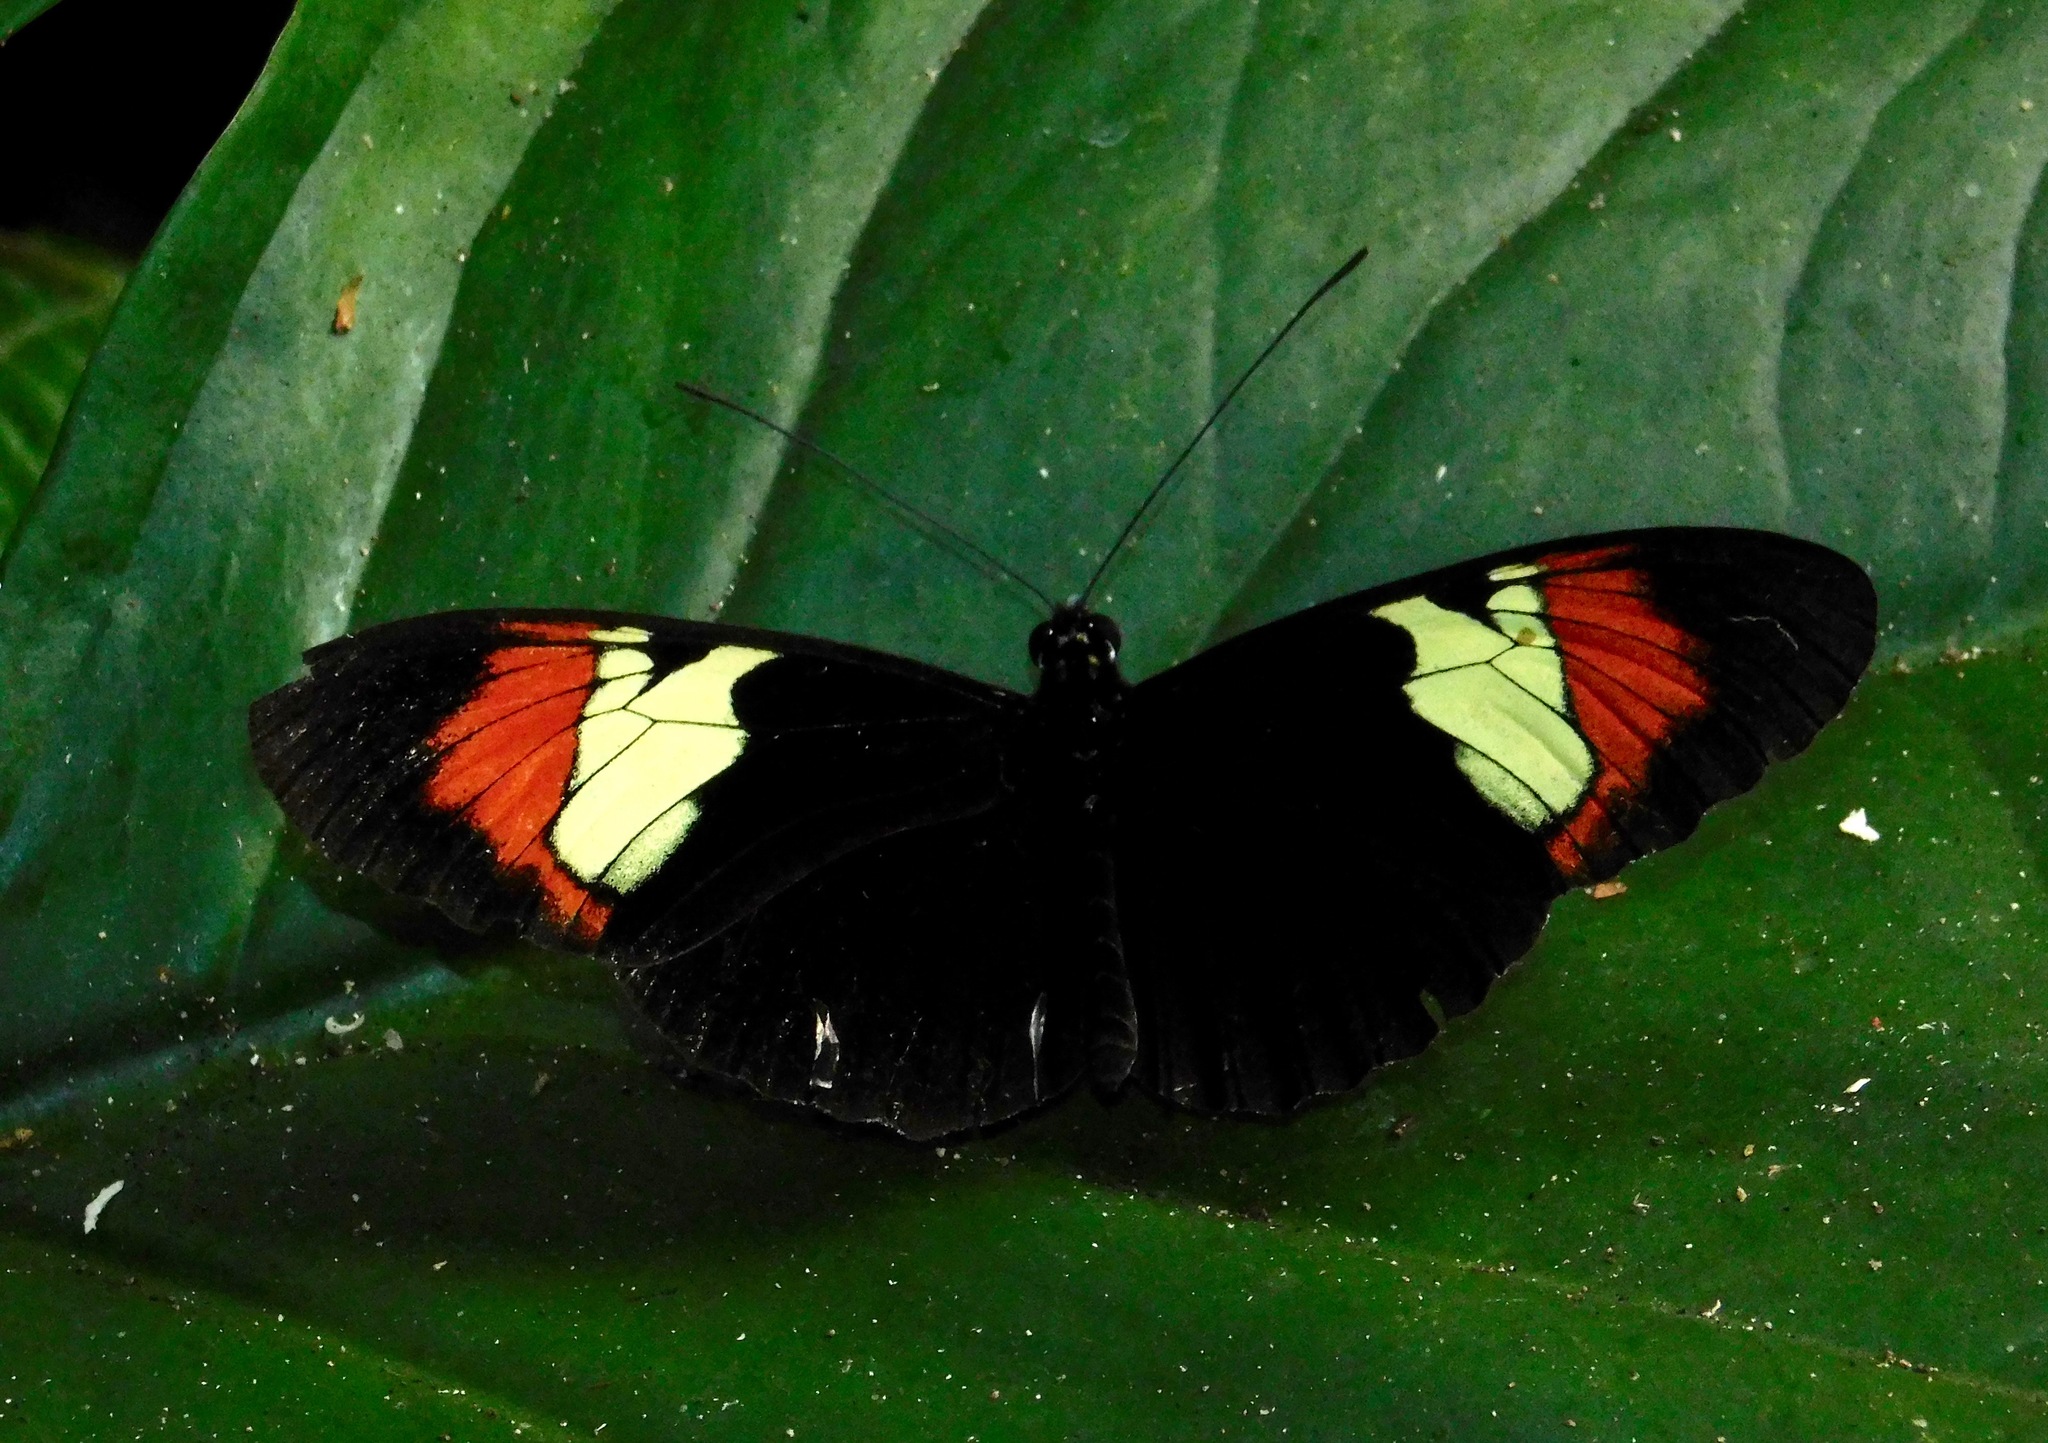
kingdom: Animalia
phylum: Arthropoda
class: Insecta
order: Lepidoptera
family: Nymphalidae
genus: Heliconius
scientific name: Heliconius heurippa
